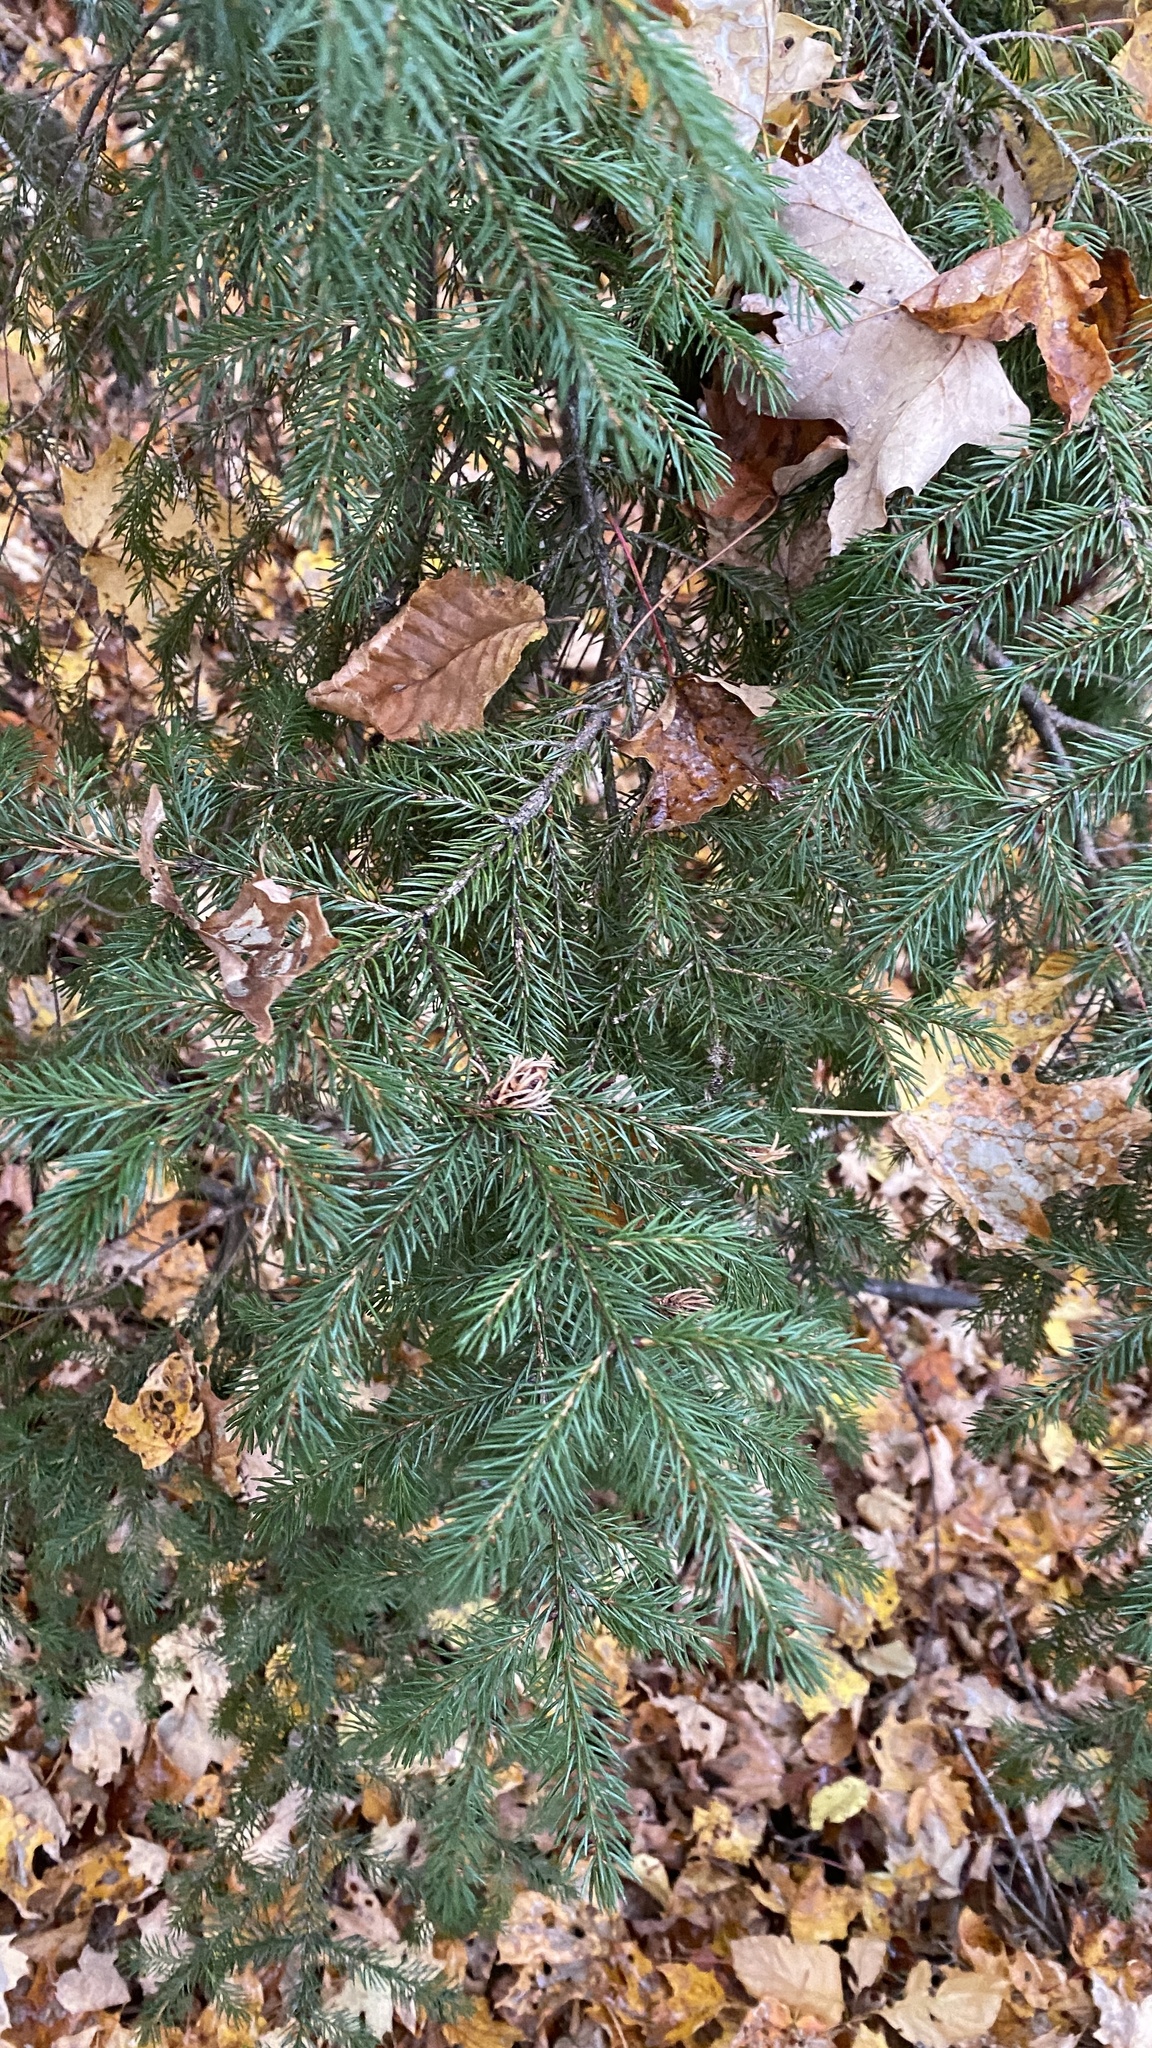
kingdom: Plantae
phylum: Tracheophyta
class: Pinopsida
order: Pinales
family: Pinaceae
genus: Picea
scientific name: Picea rubens
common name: Red spruce
